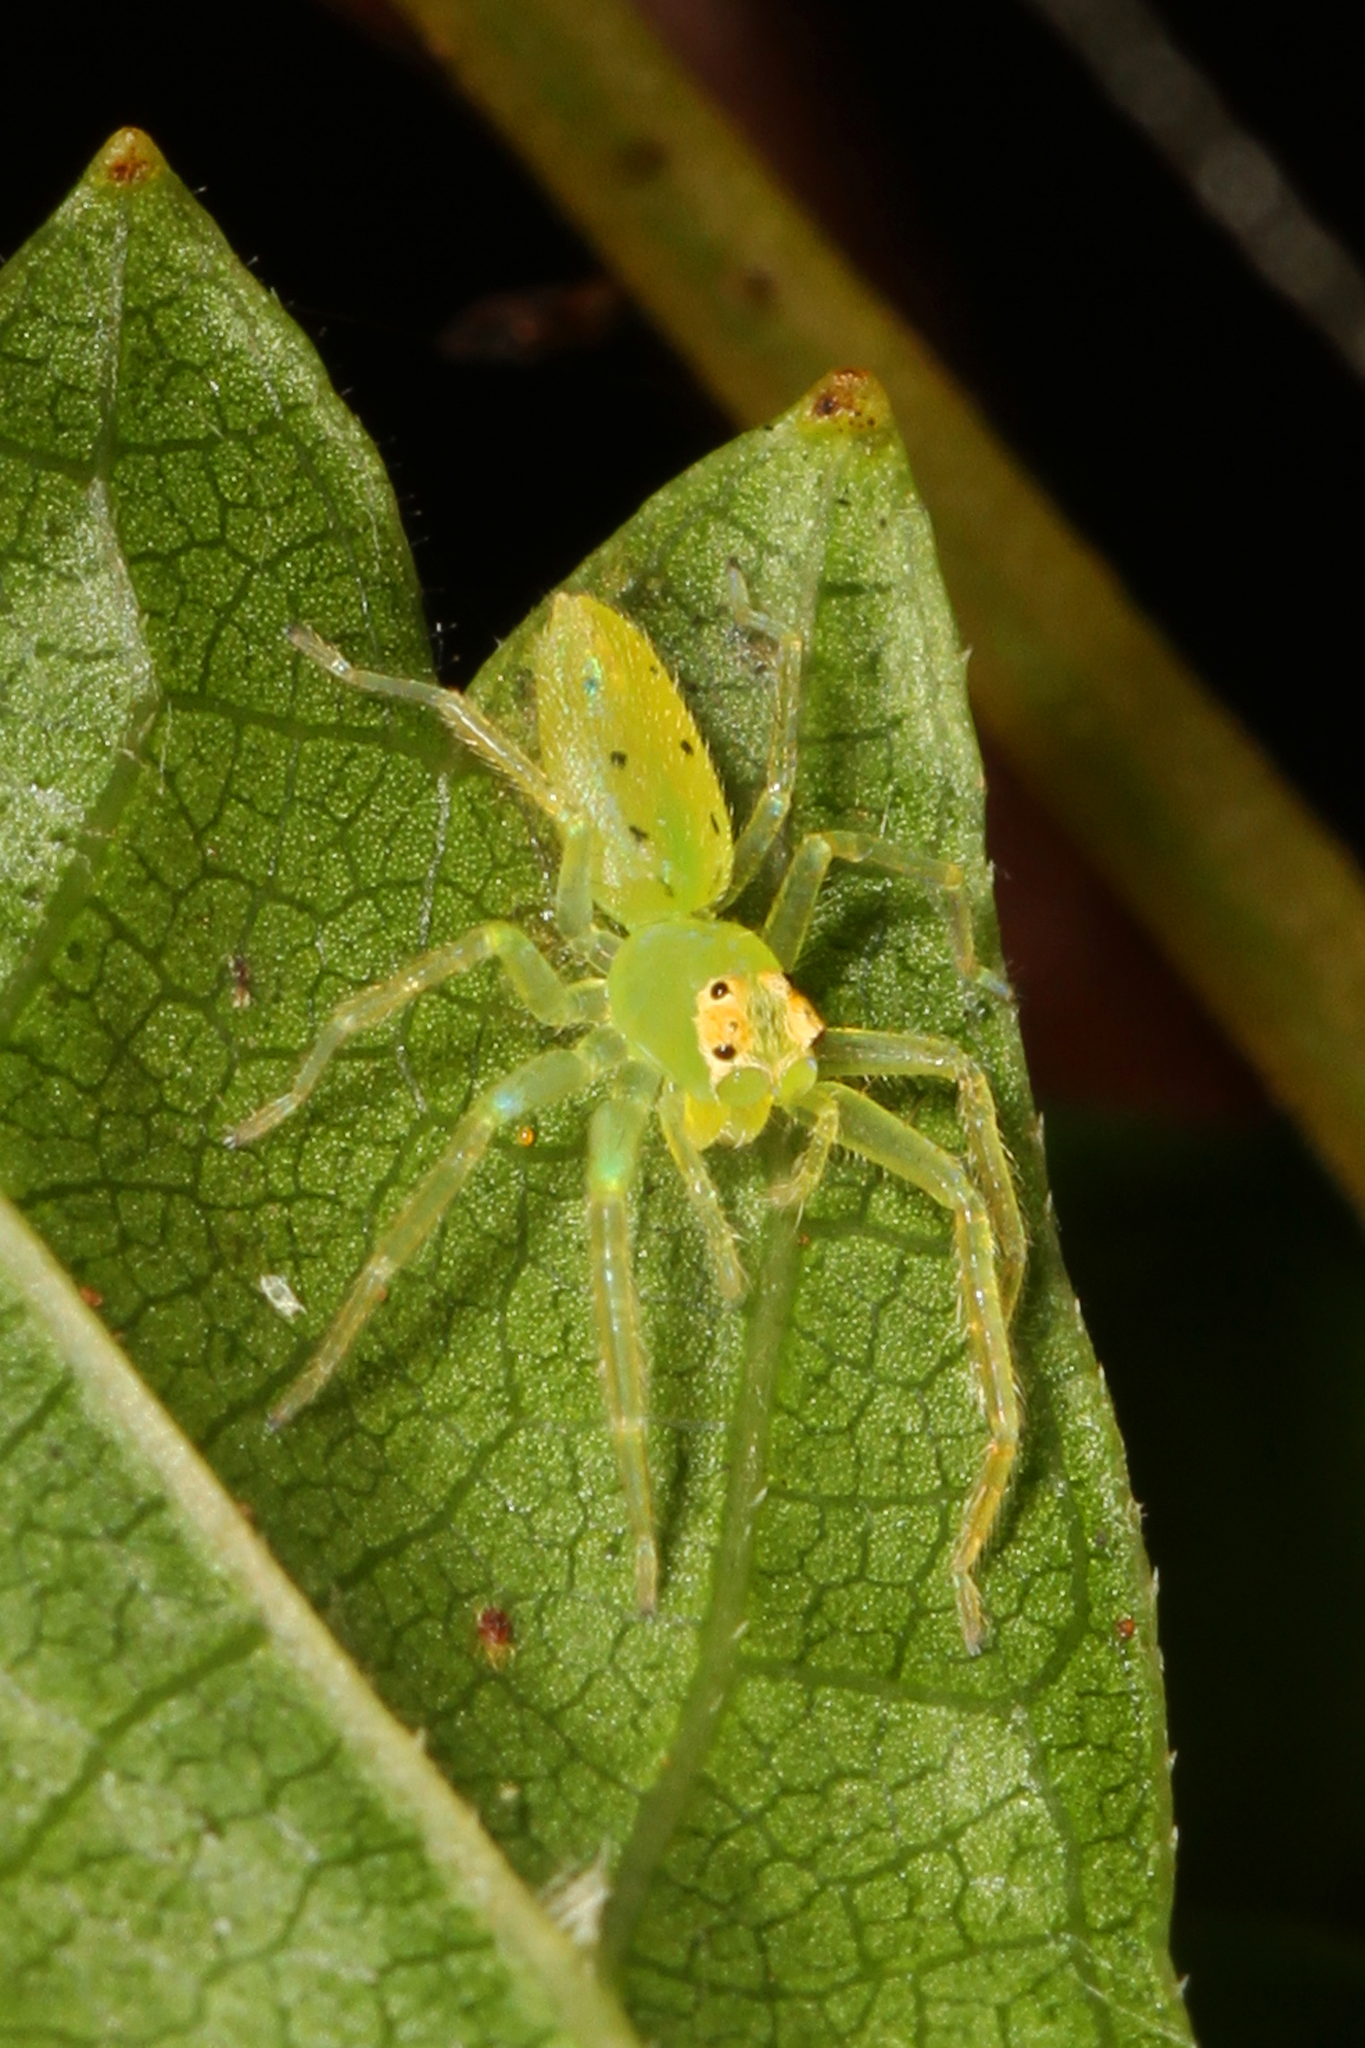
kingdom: Animalia
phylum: Arthropoda
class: Arachnida
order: Araneae
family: Salticidae
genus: Lyssomanes
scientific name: Lyssomanes viridis
